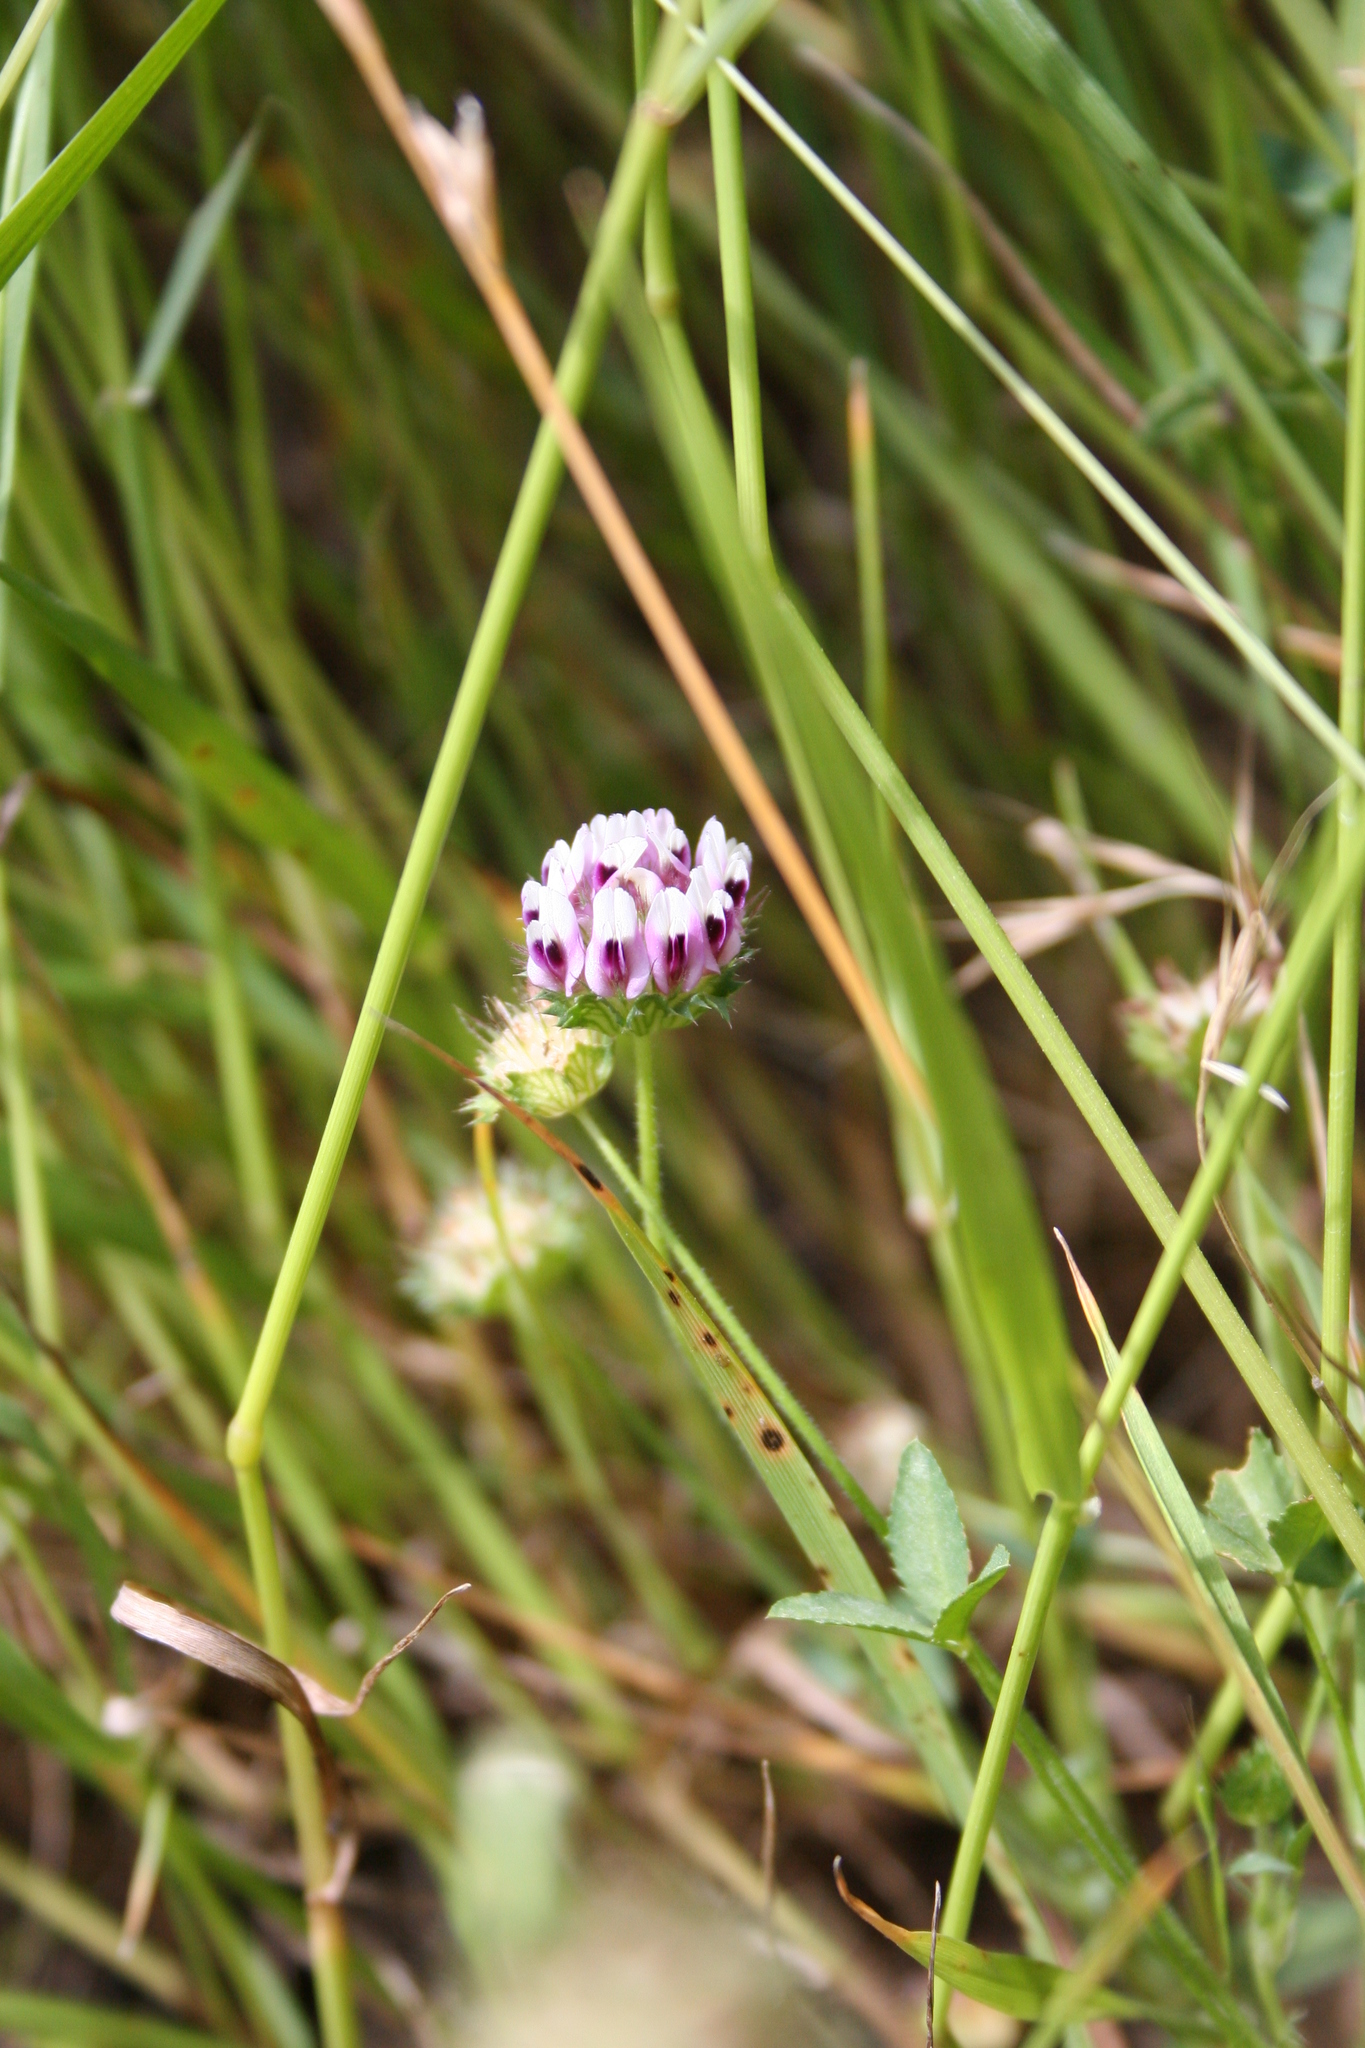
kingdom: Plantae
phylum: Tracheophyta
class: Magnoliopsida
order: Fabales
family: Fabaceae
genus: Trifolium
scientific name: Trifolium willdenovii
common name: Tomcat clover
